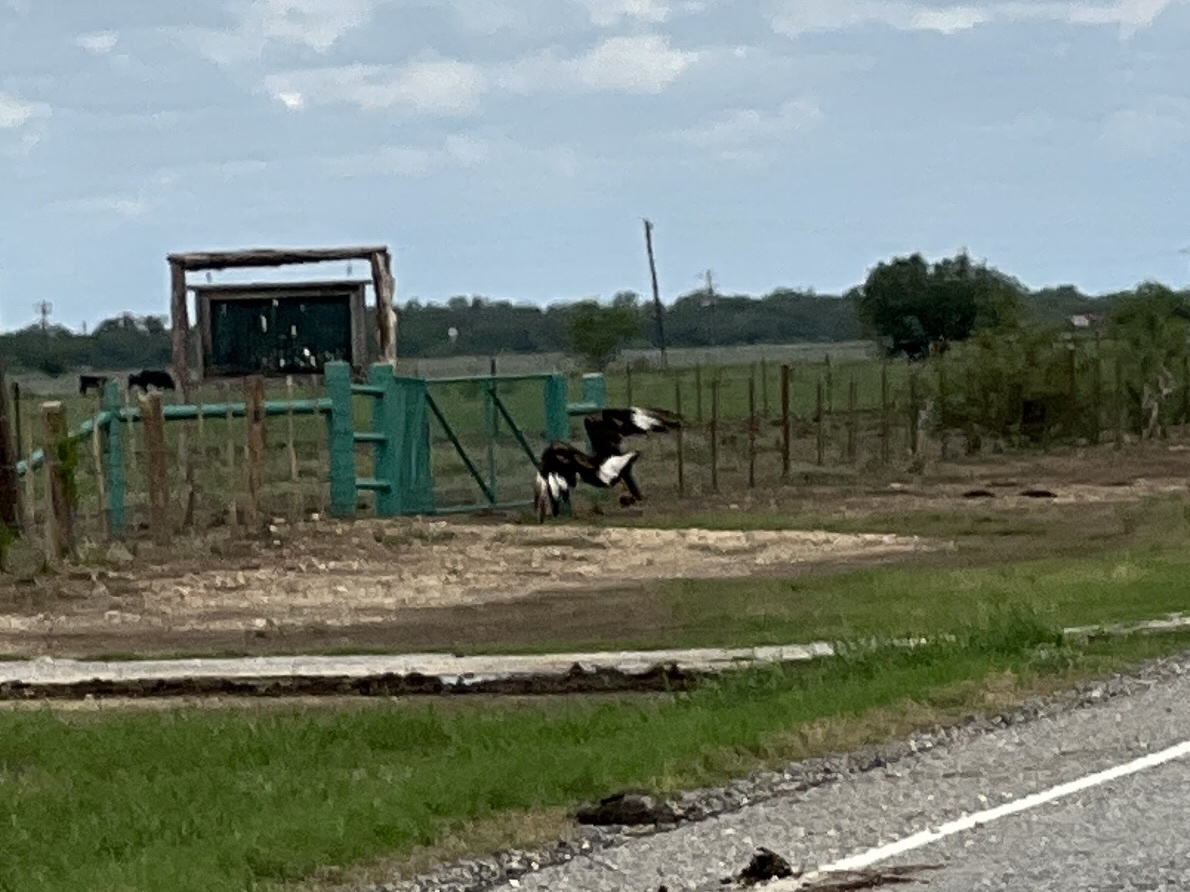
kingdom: Animalia
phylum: Chordata
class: Aves
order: Falconiformes
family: Falconidae
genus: Caracara
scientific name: Caracara plancus
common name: Southern caracara
